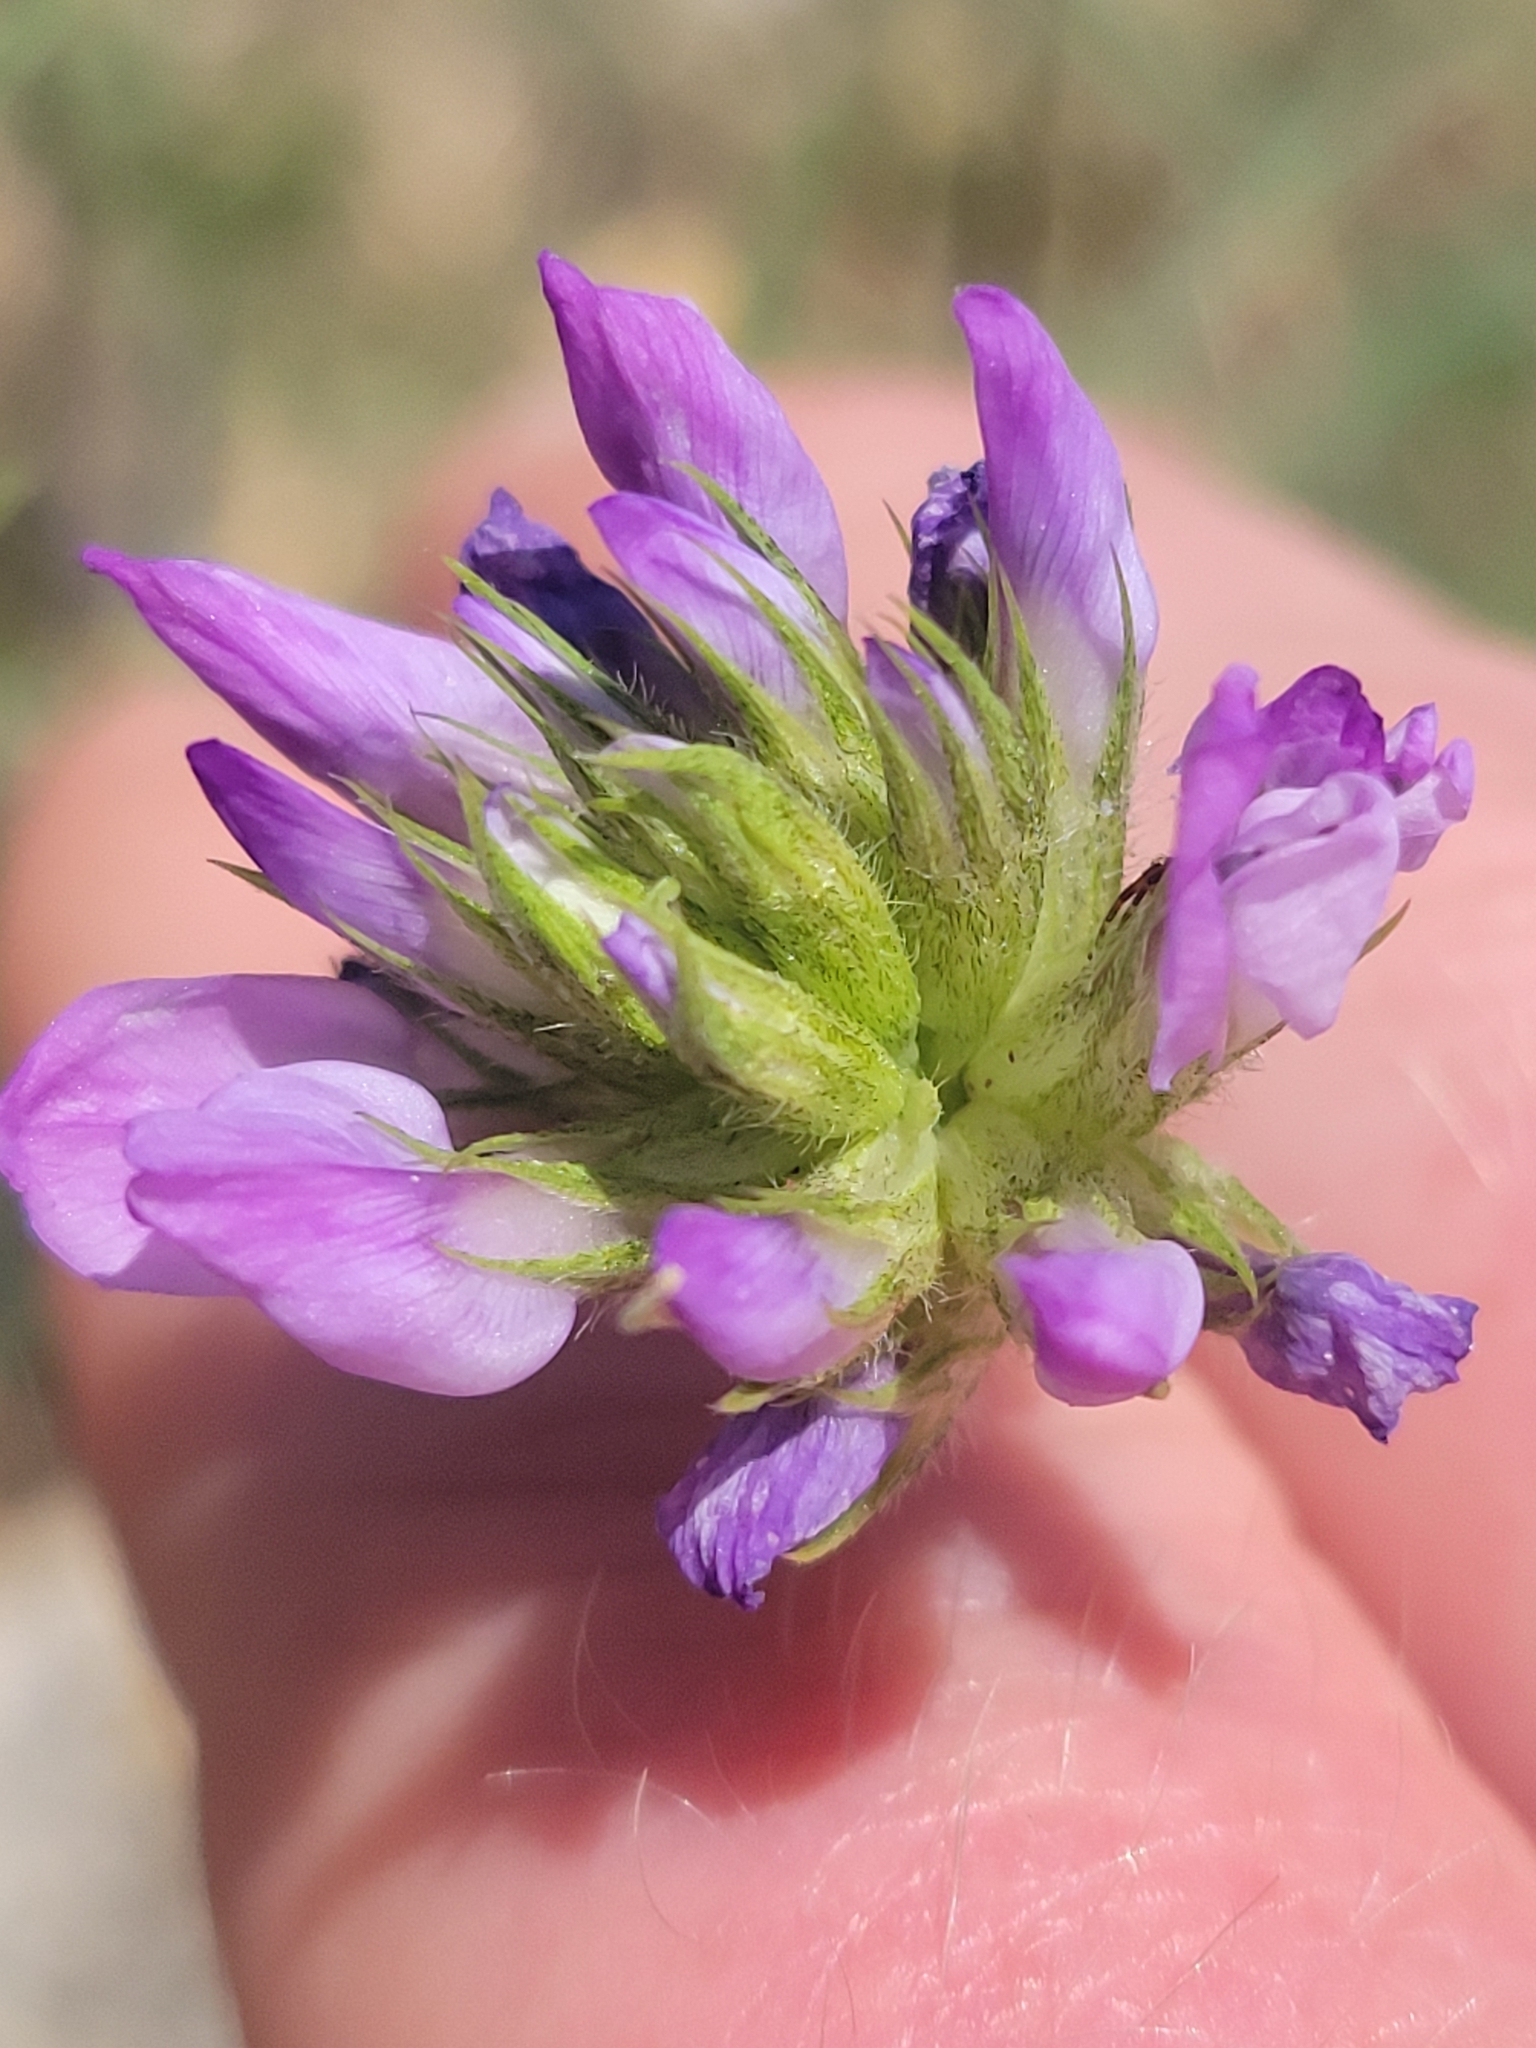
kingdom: Plantae
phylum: Tracheophyta
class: Magnoliopsida
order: Fabales
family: Fabaceae
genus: Bituminaria
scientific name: Bituminaria bituminosa
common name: Arabian pea
